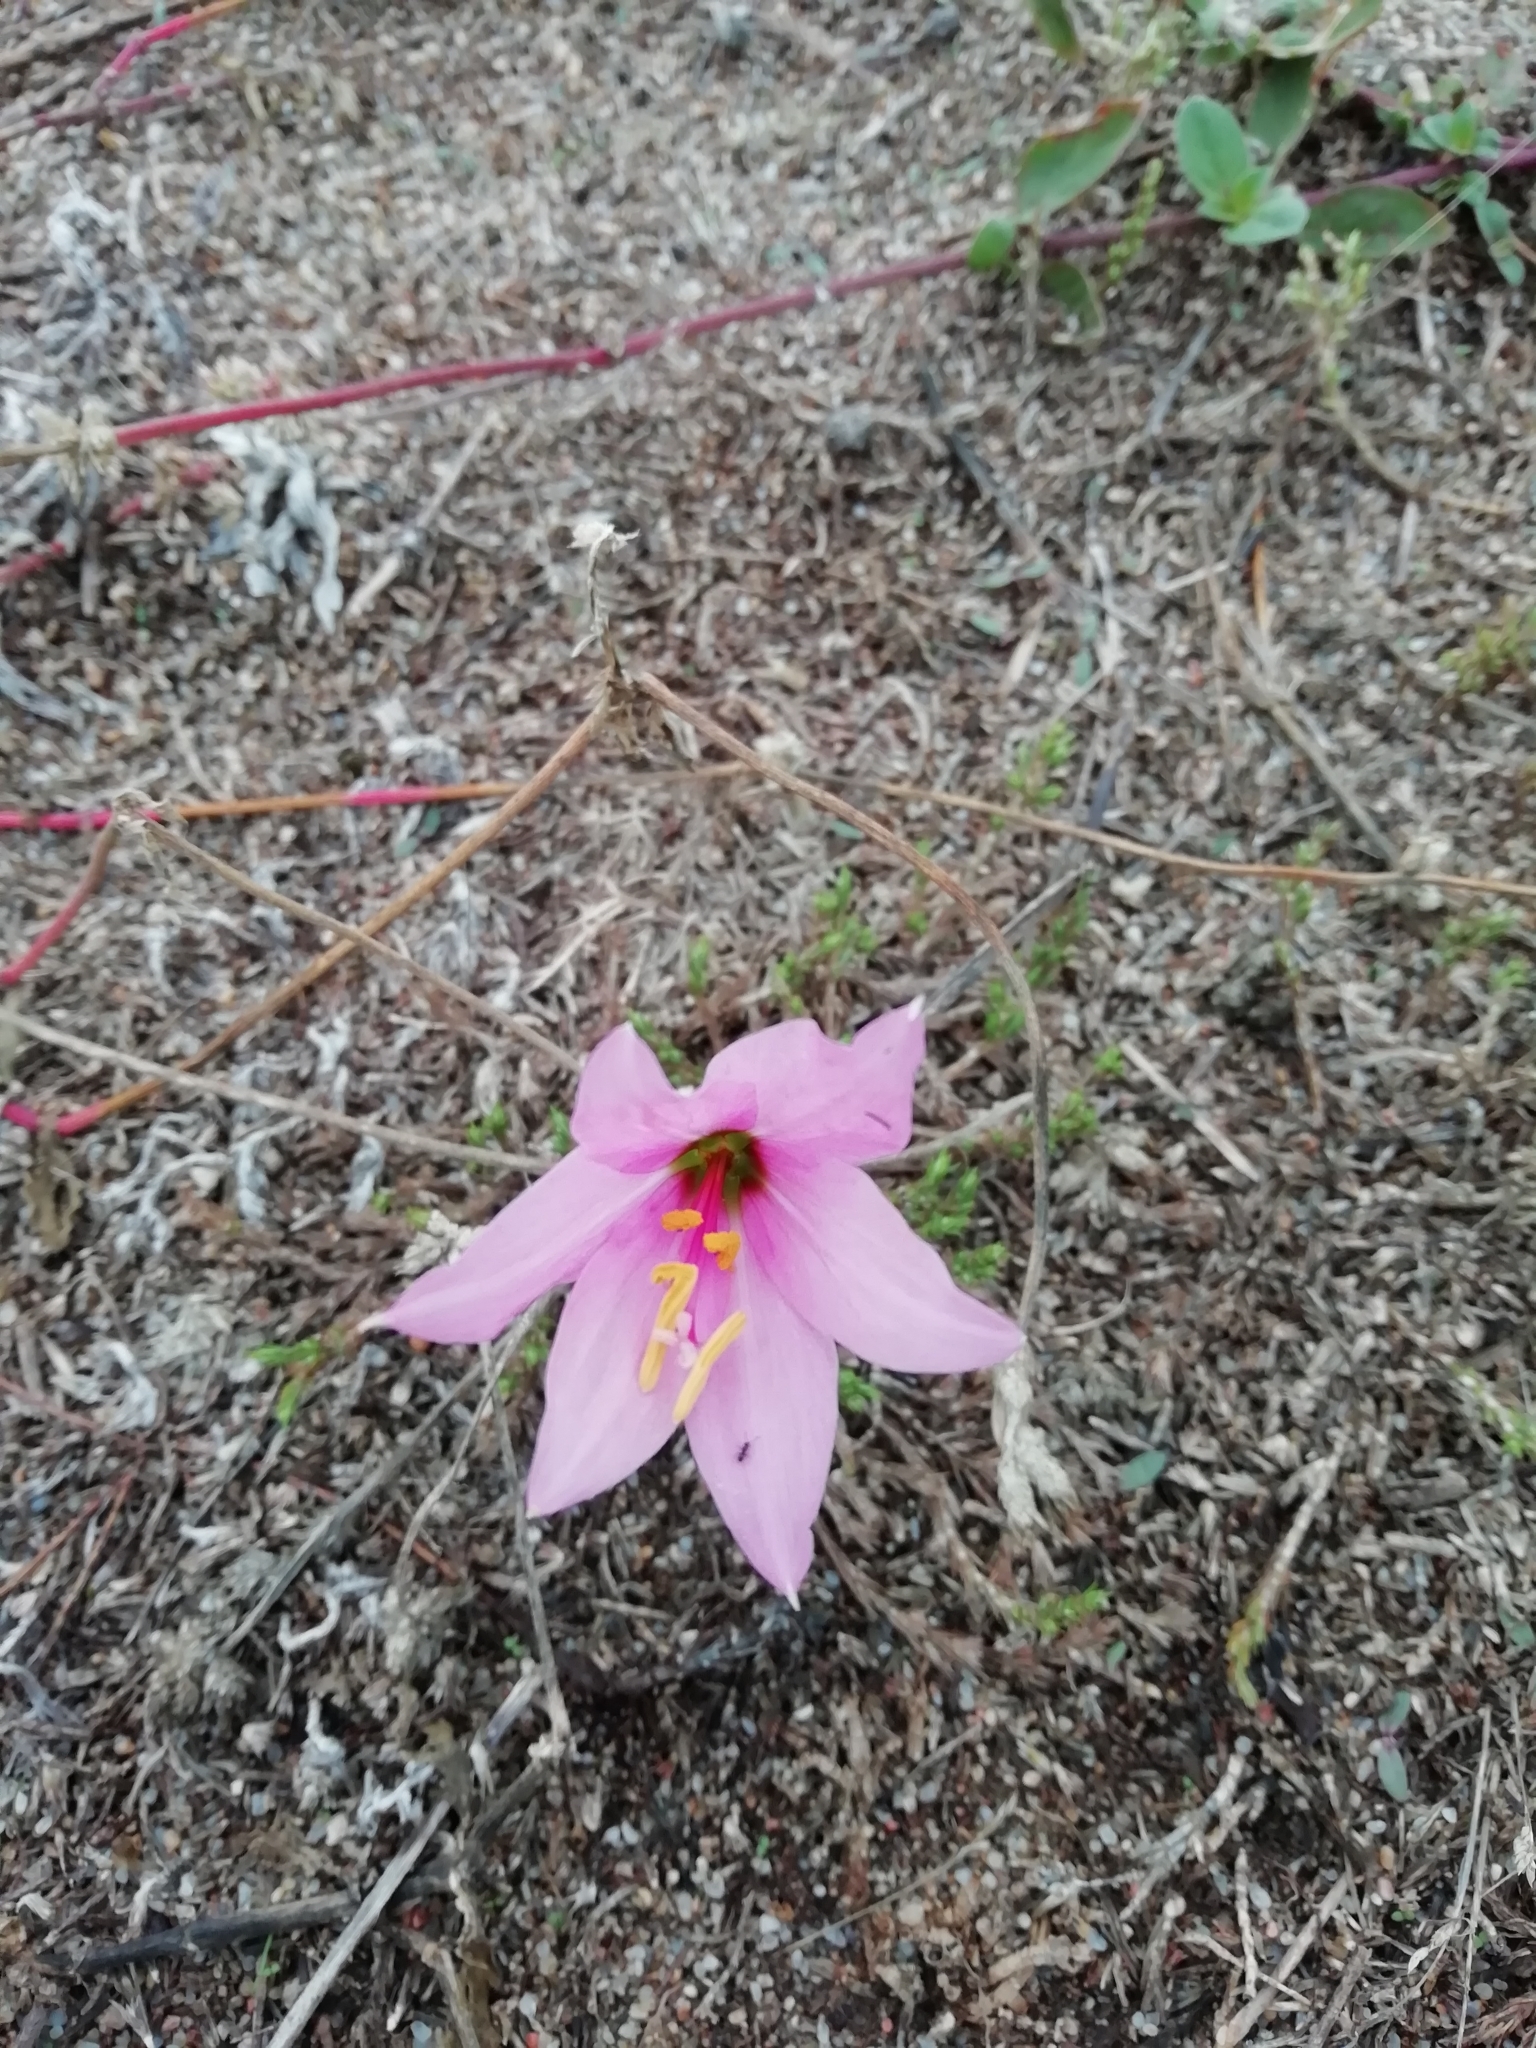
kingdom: Plantae
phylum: Tracheophyta
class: Liliopsida
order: Asparagales
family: Amaryllidaceae
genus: Zephyranthes
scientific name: Zephyranthes gracilifolia
